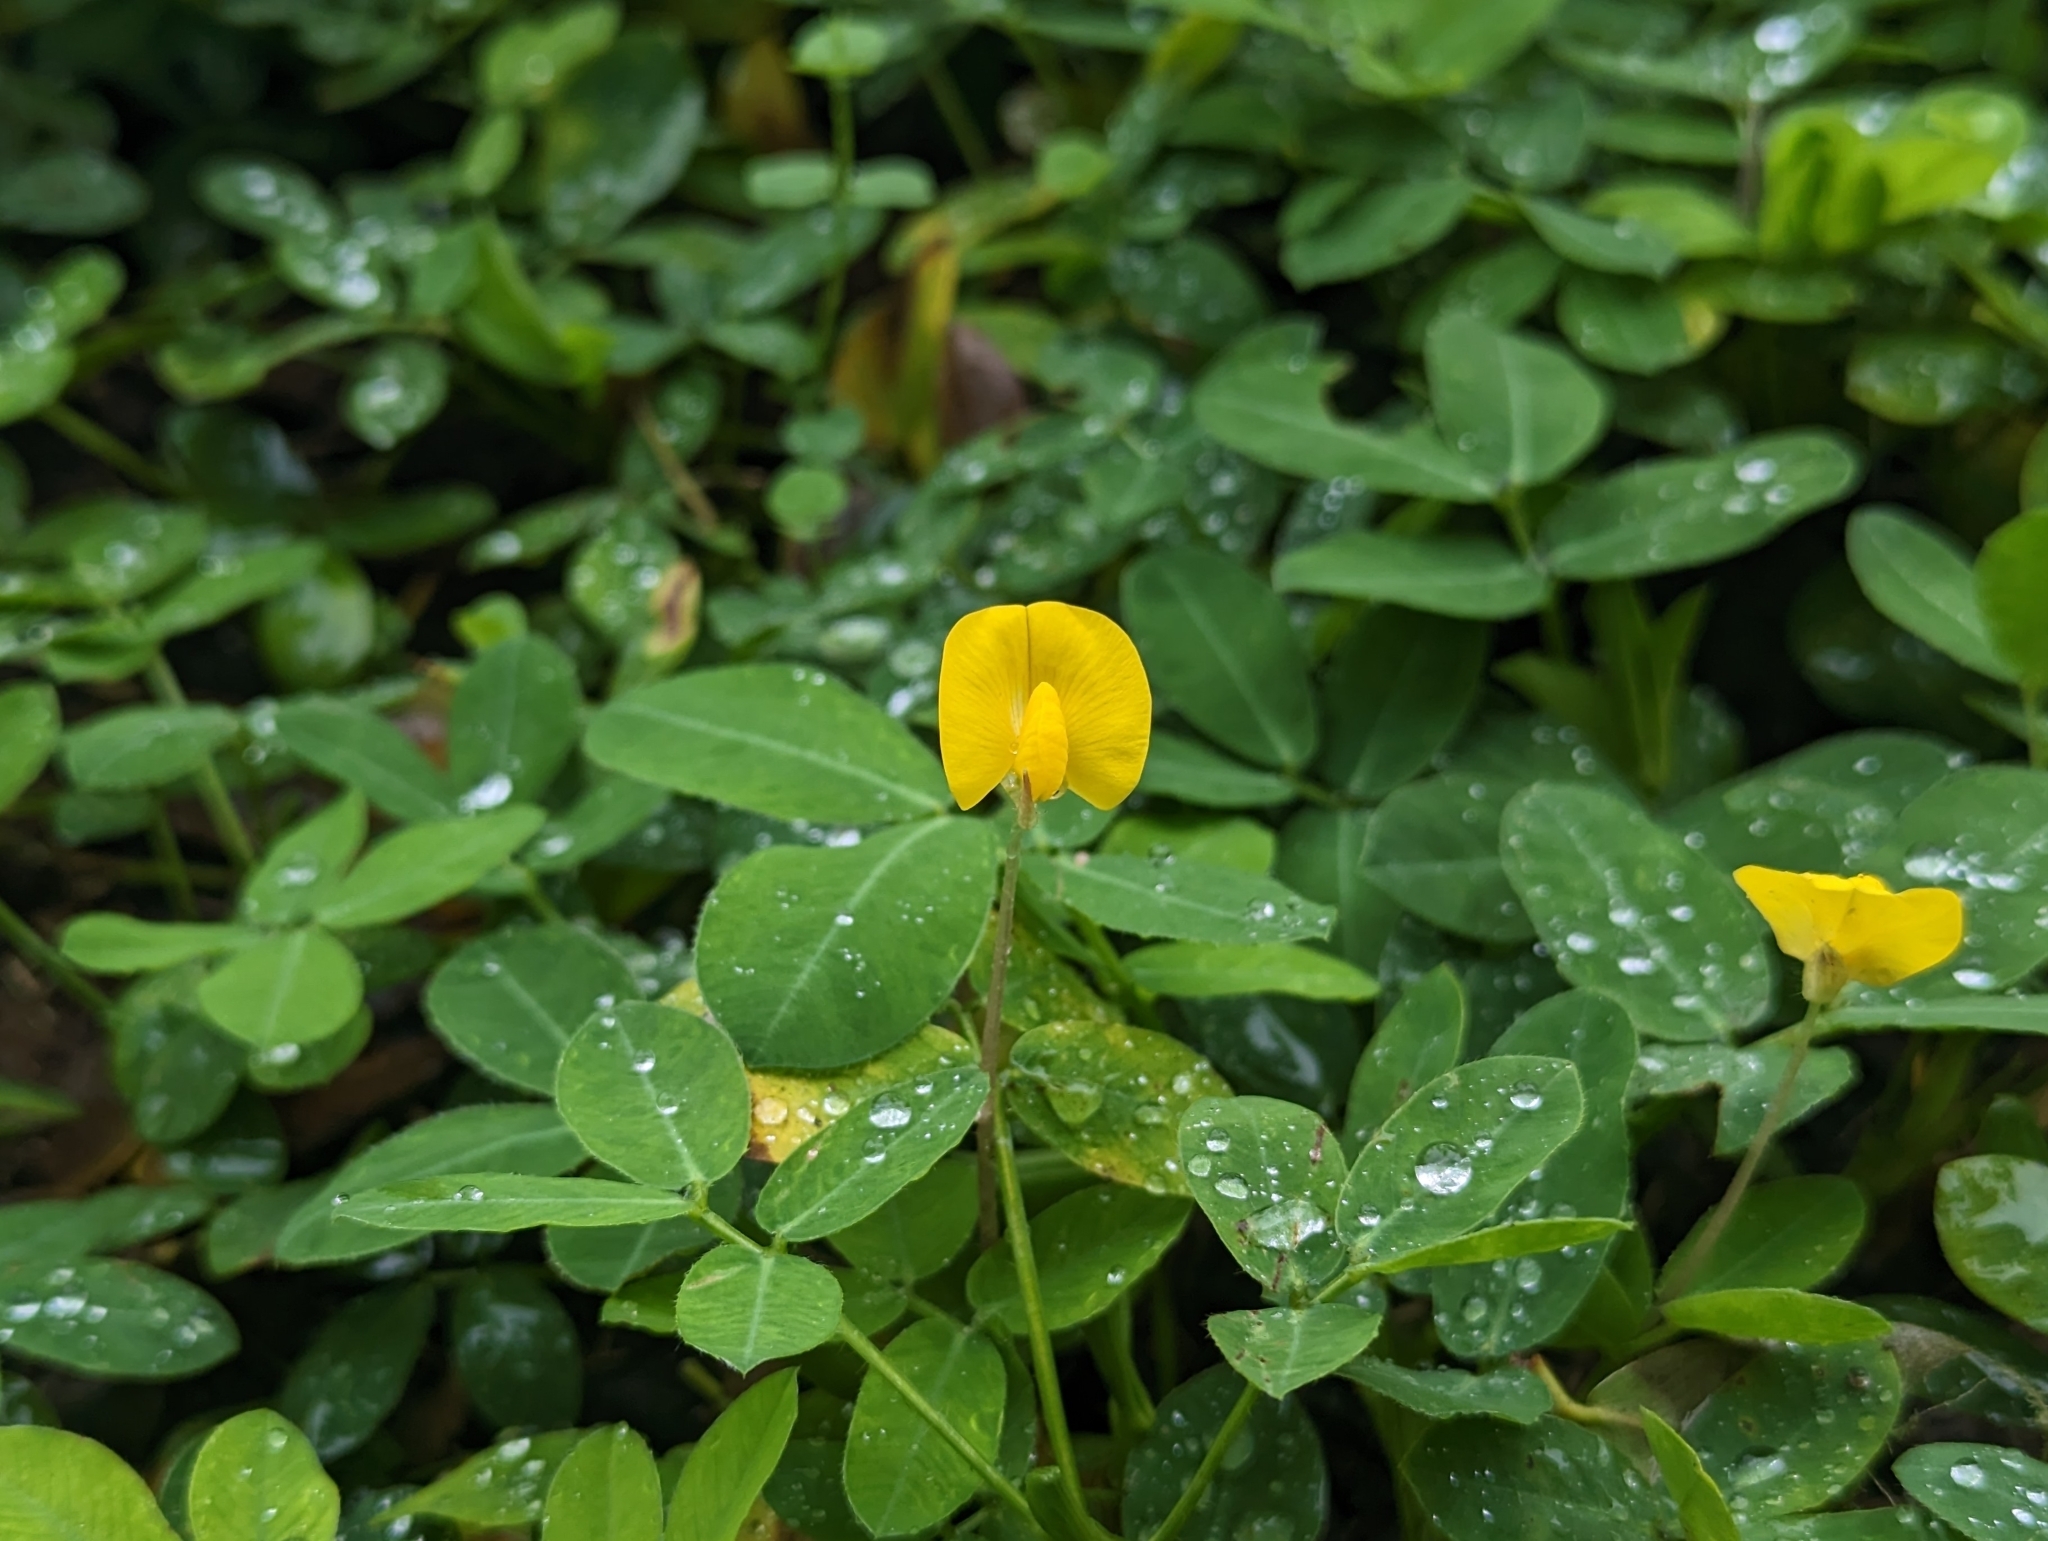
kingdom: Plantae
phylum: Tracheophyta
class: Magnoliopsida
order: Fabales
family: Fabaceae
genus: Arachis
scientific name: Arachis pintoi
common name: Pinto peanut
